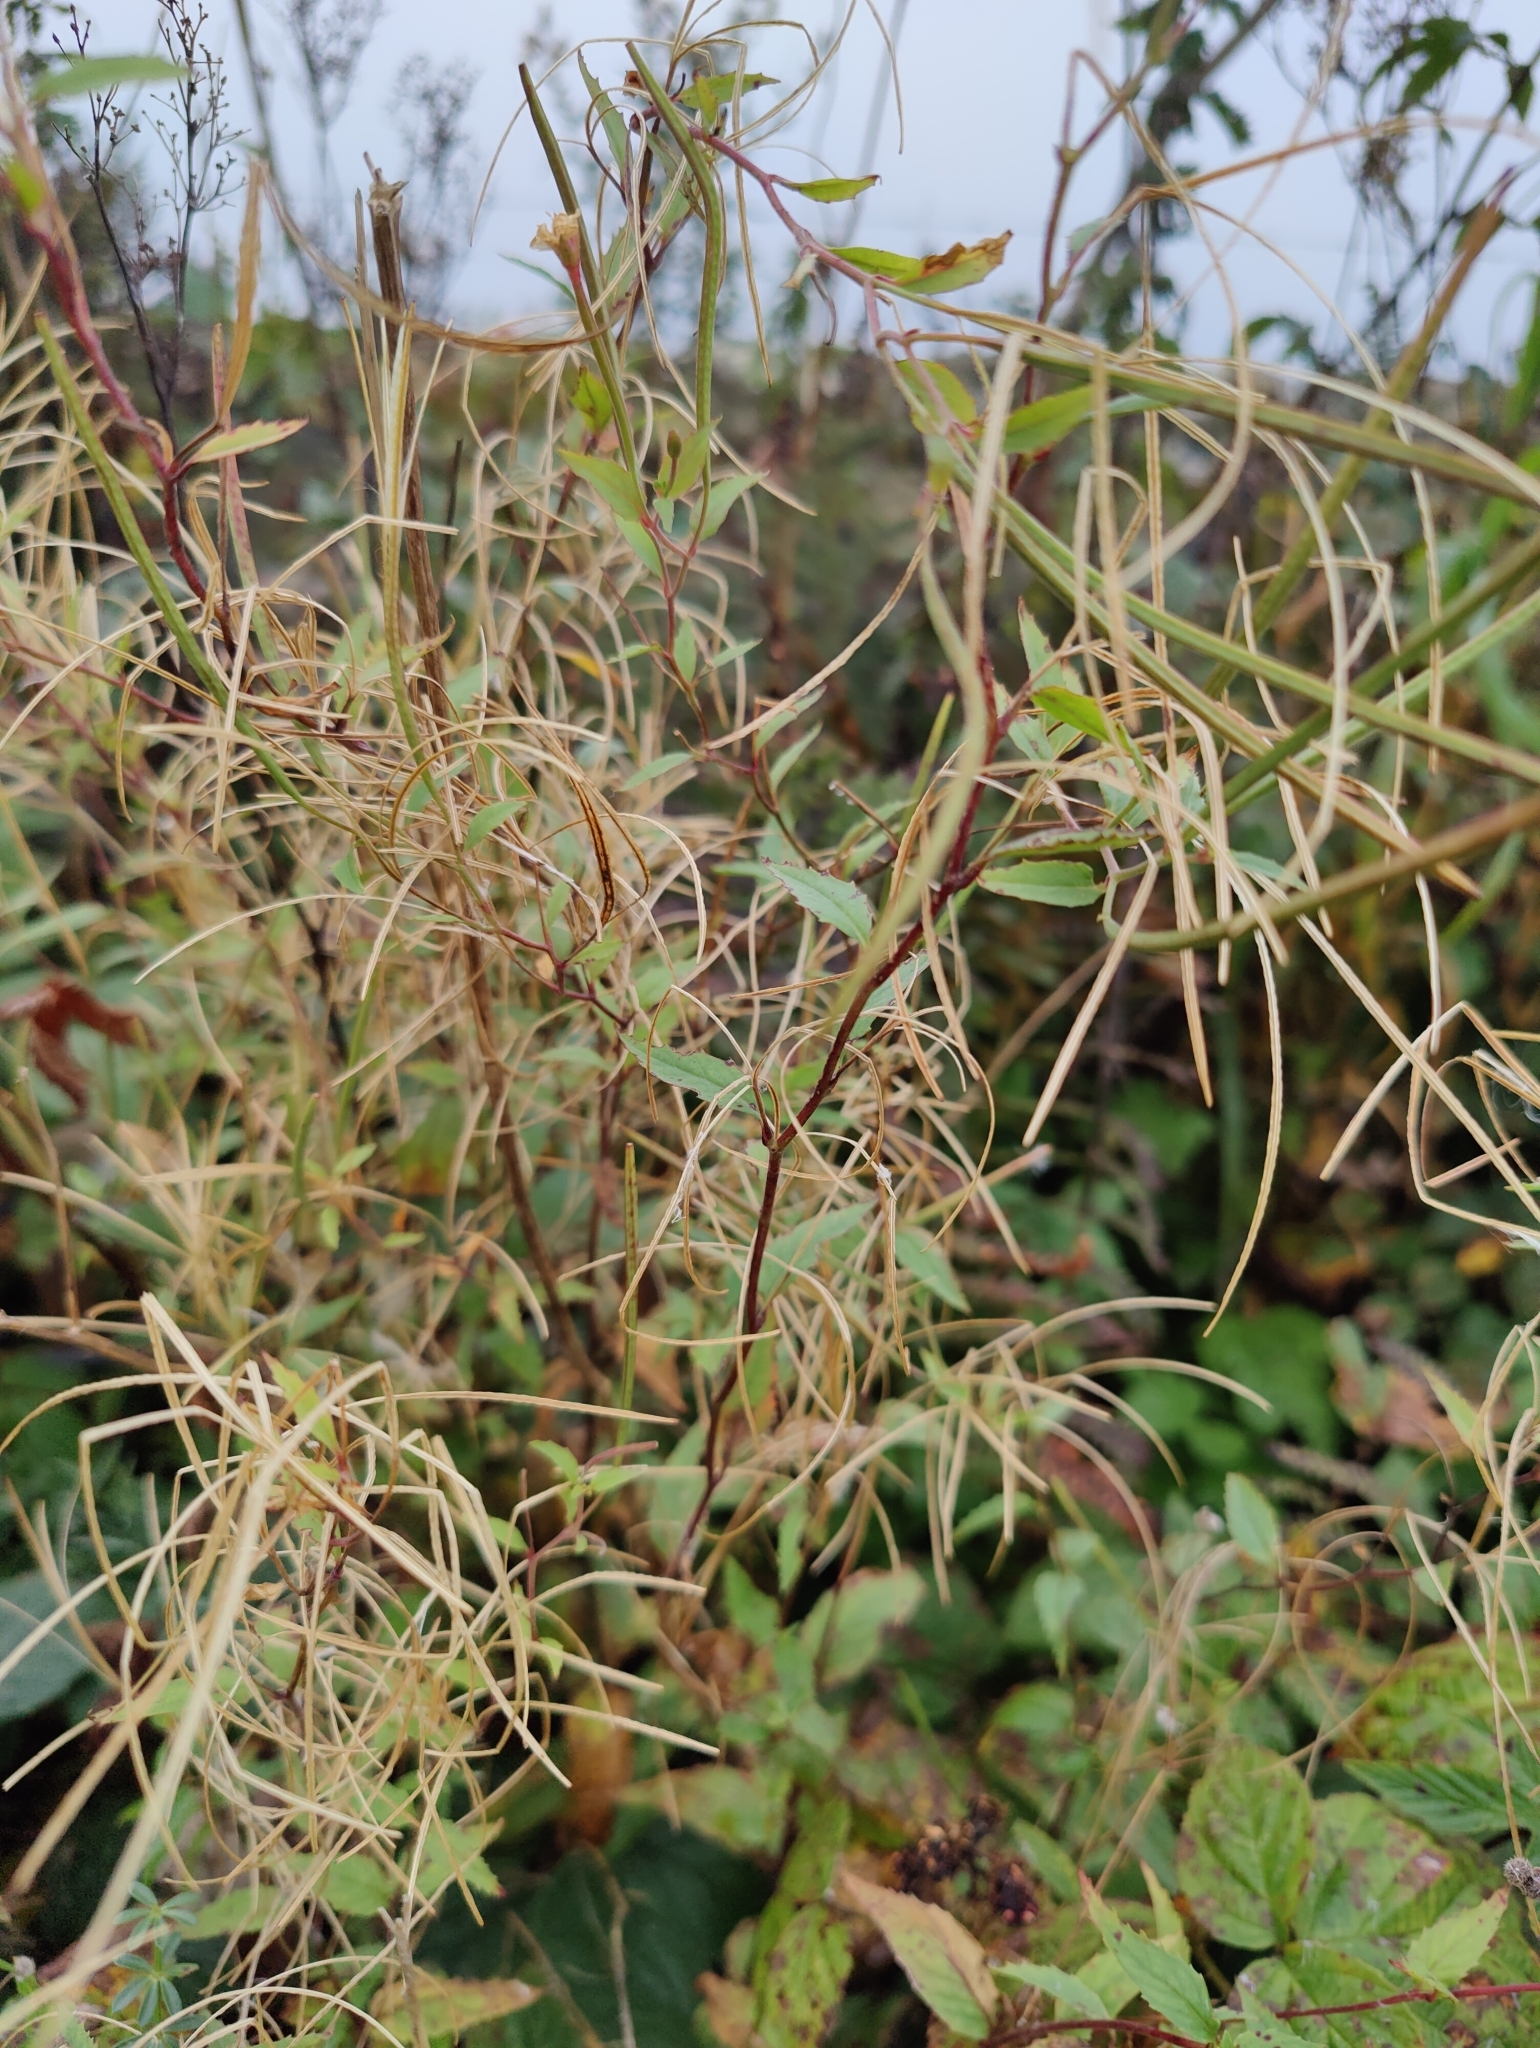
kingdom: Plantae
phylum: Tracheophyta
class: Magnoliopsida
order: Myrtales
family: Onagraceae
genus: Chamaenerion
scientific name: Chamaenerion angustifolium
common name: Fireweed
